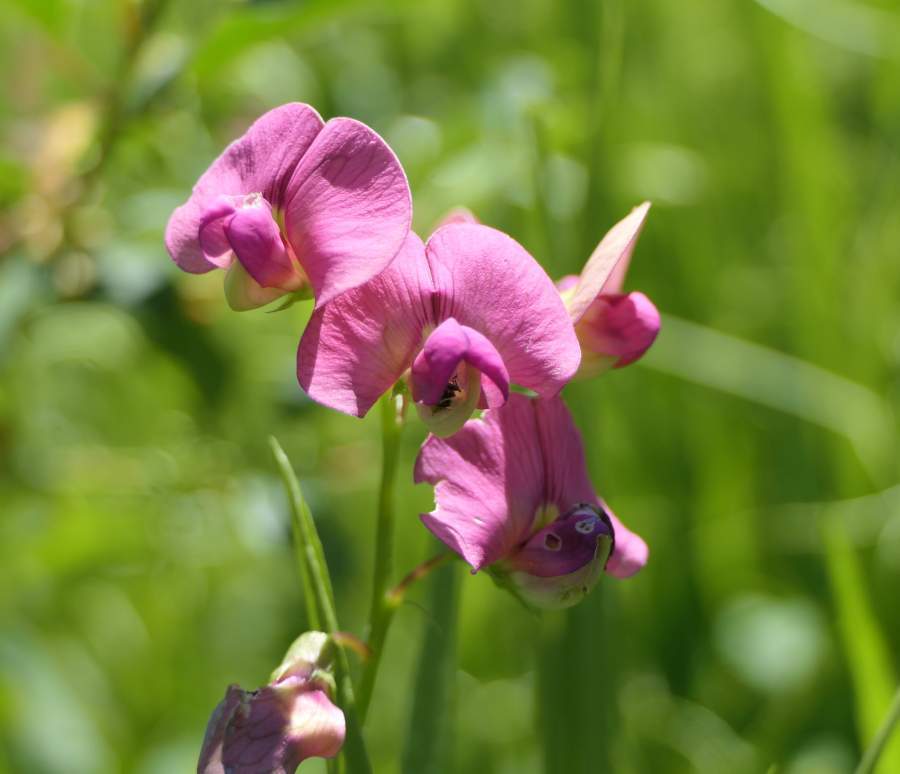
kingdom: Plantae
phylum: Tracheophyta
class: Magnoliopsida
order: Fabales
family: Fabaceae
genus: Lathyrus
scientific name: Lathyrus latifolius
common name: Perennial pea
